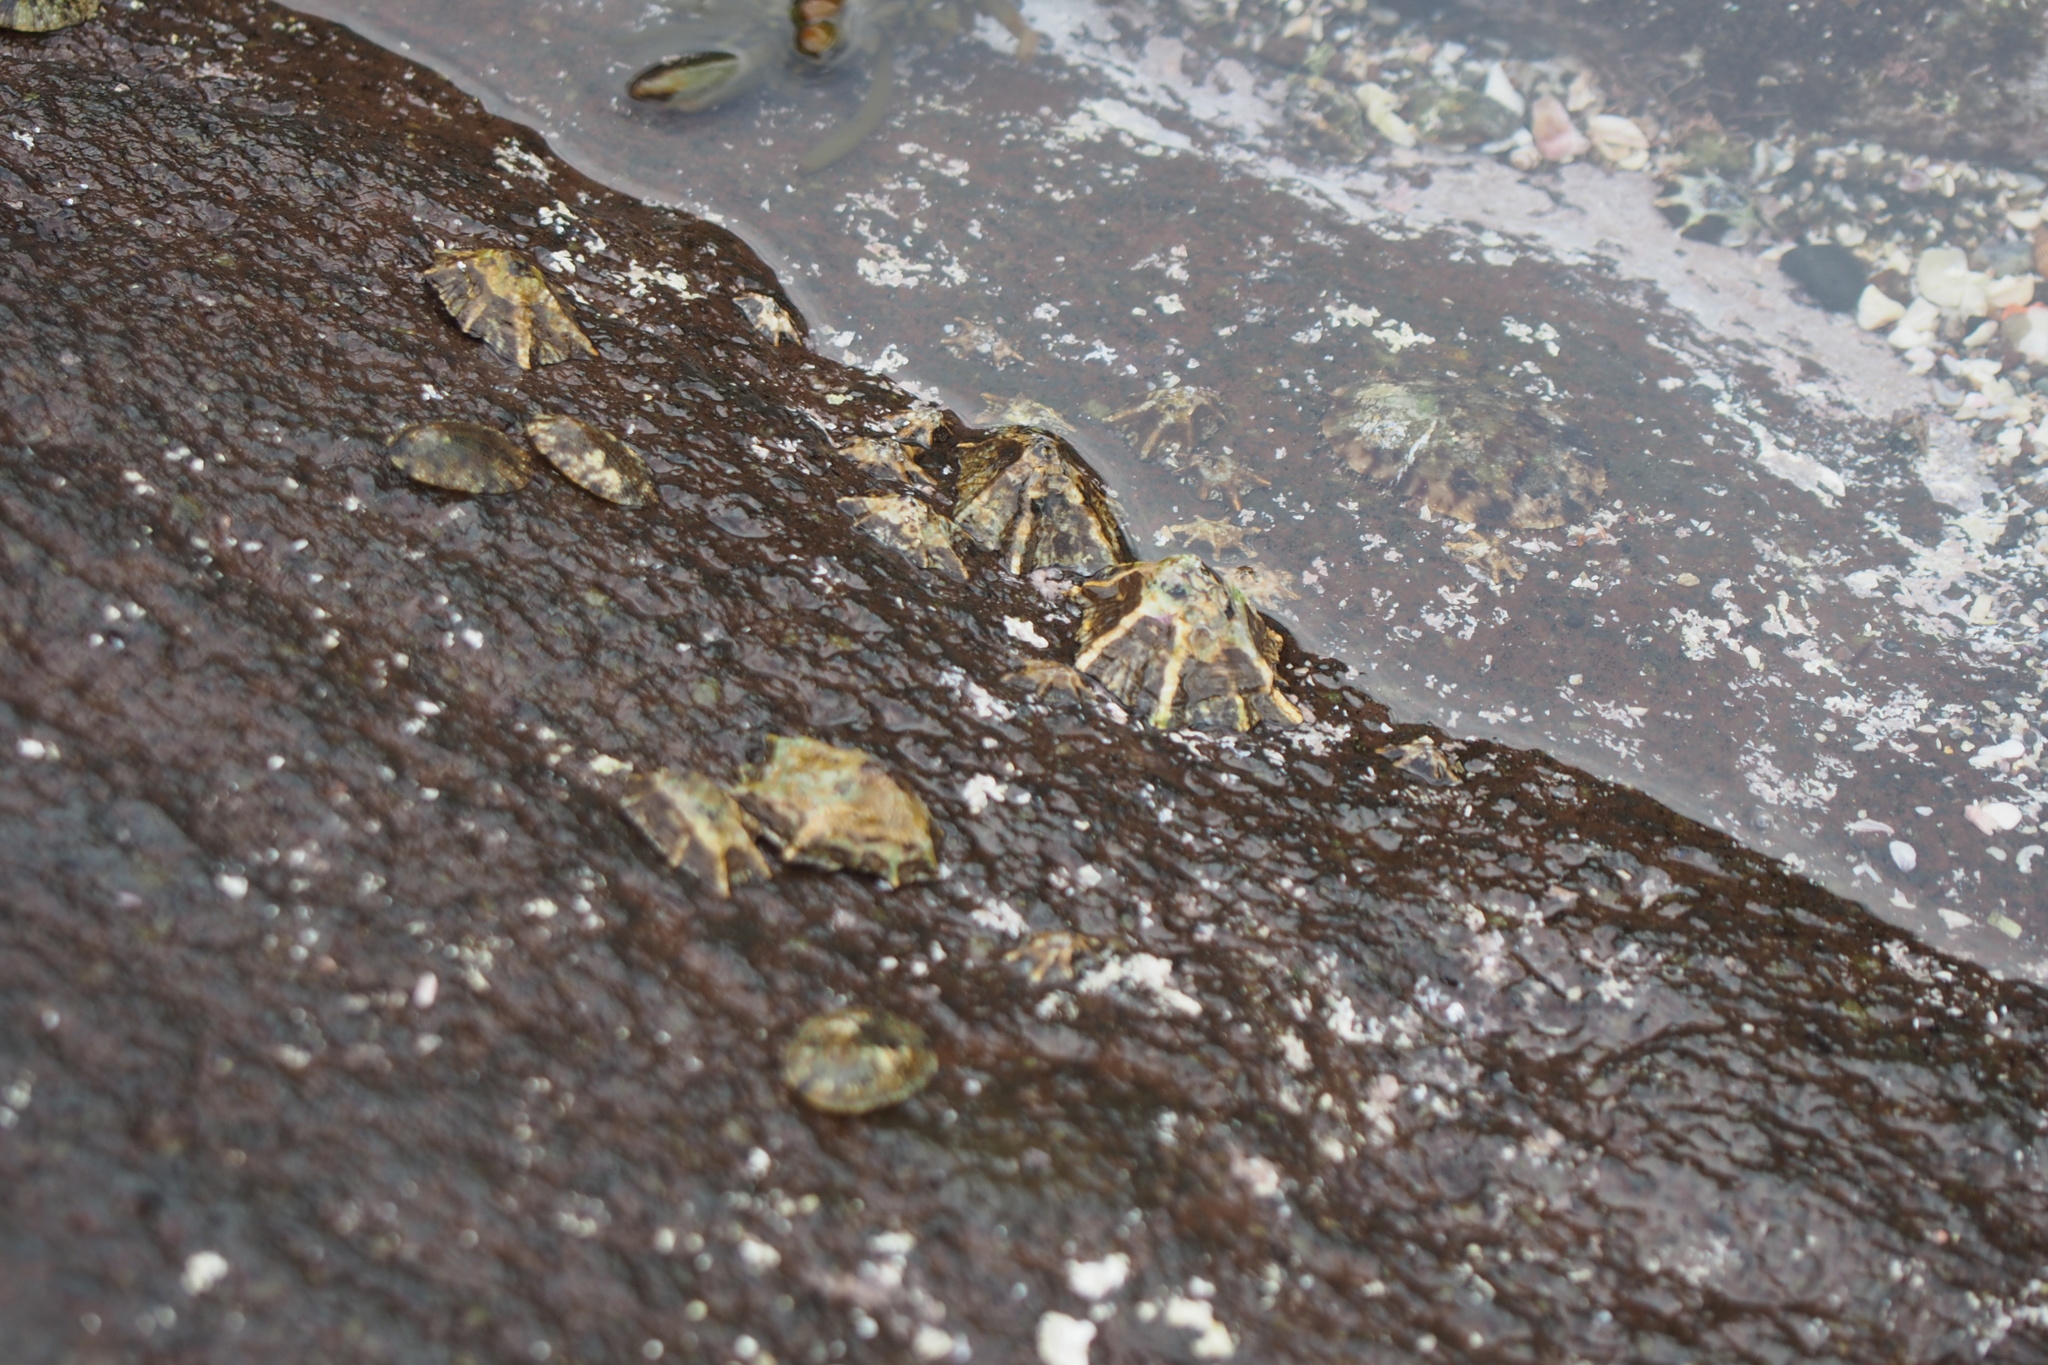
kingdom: Animalia
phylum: Mollusca
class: Gastropoda
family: Lottiidae
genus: Patelloida
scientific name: Patelloida saccharina
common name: Pacific sugar limpet
